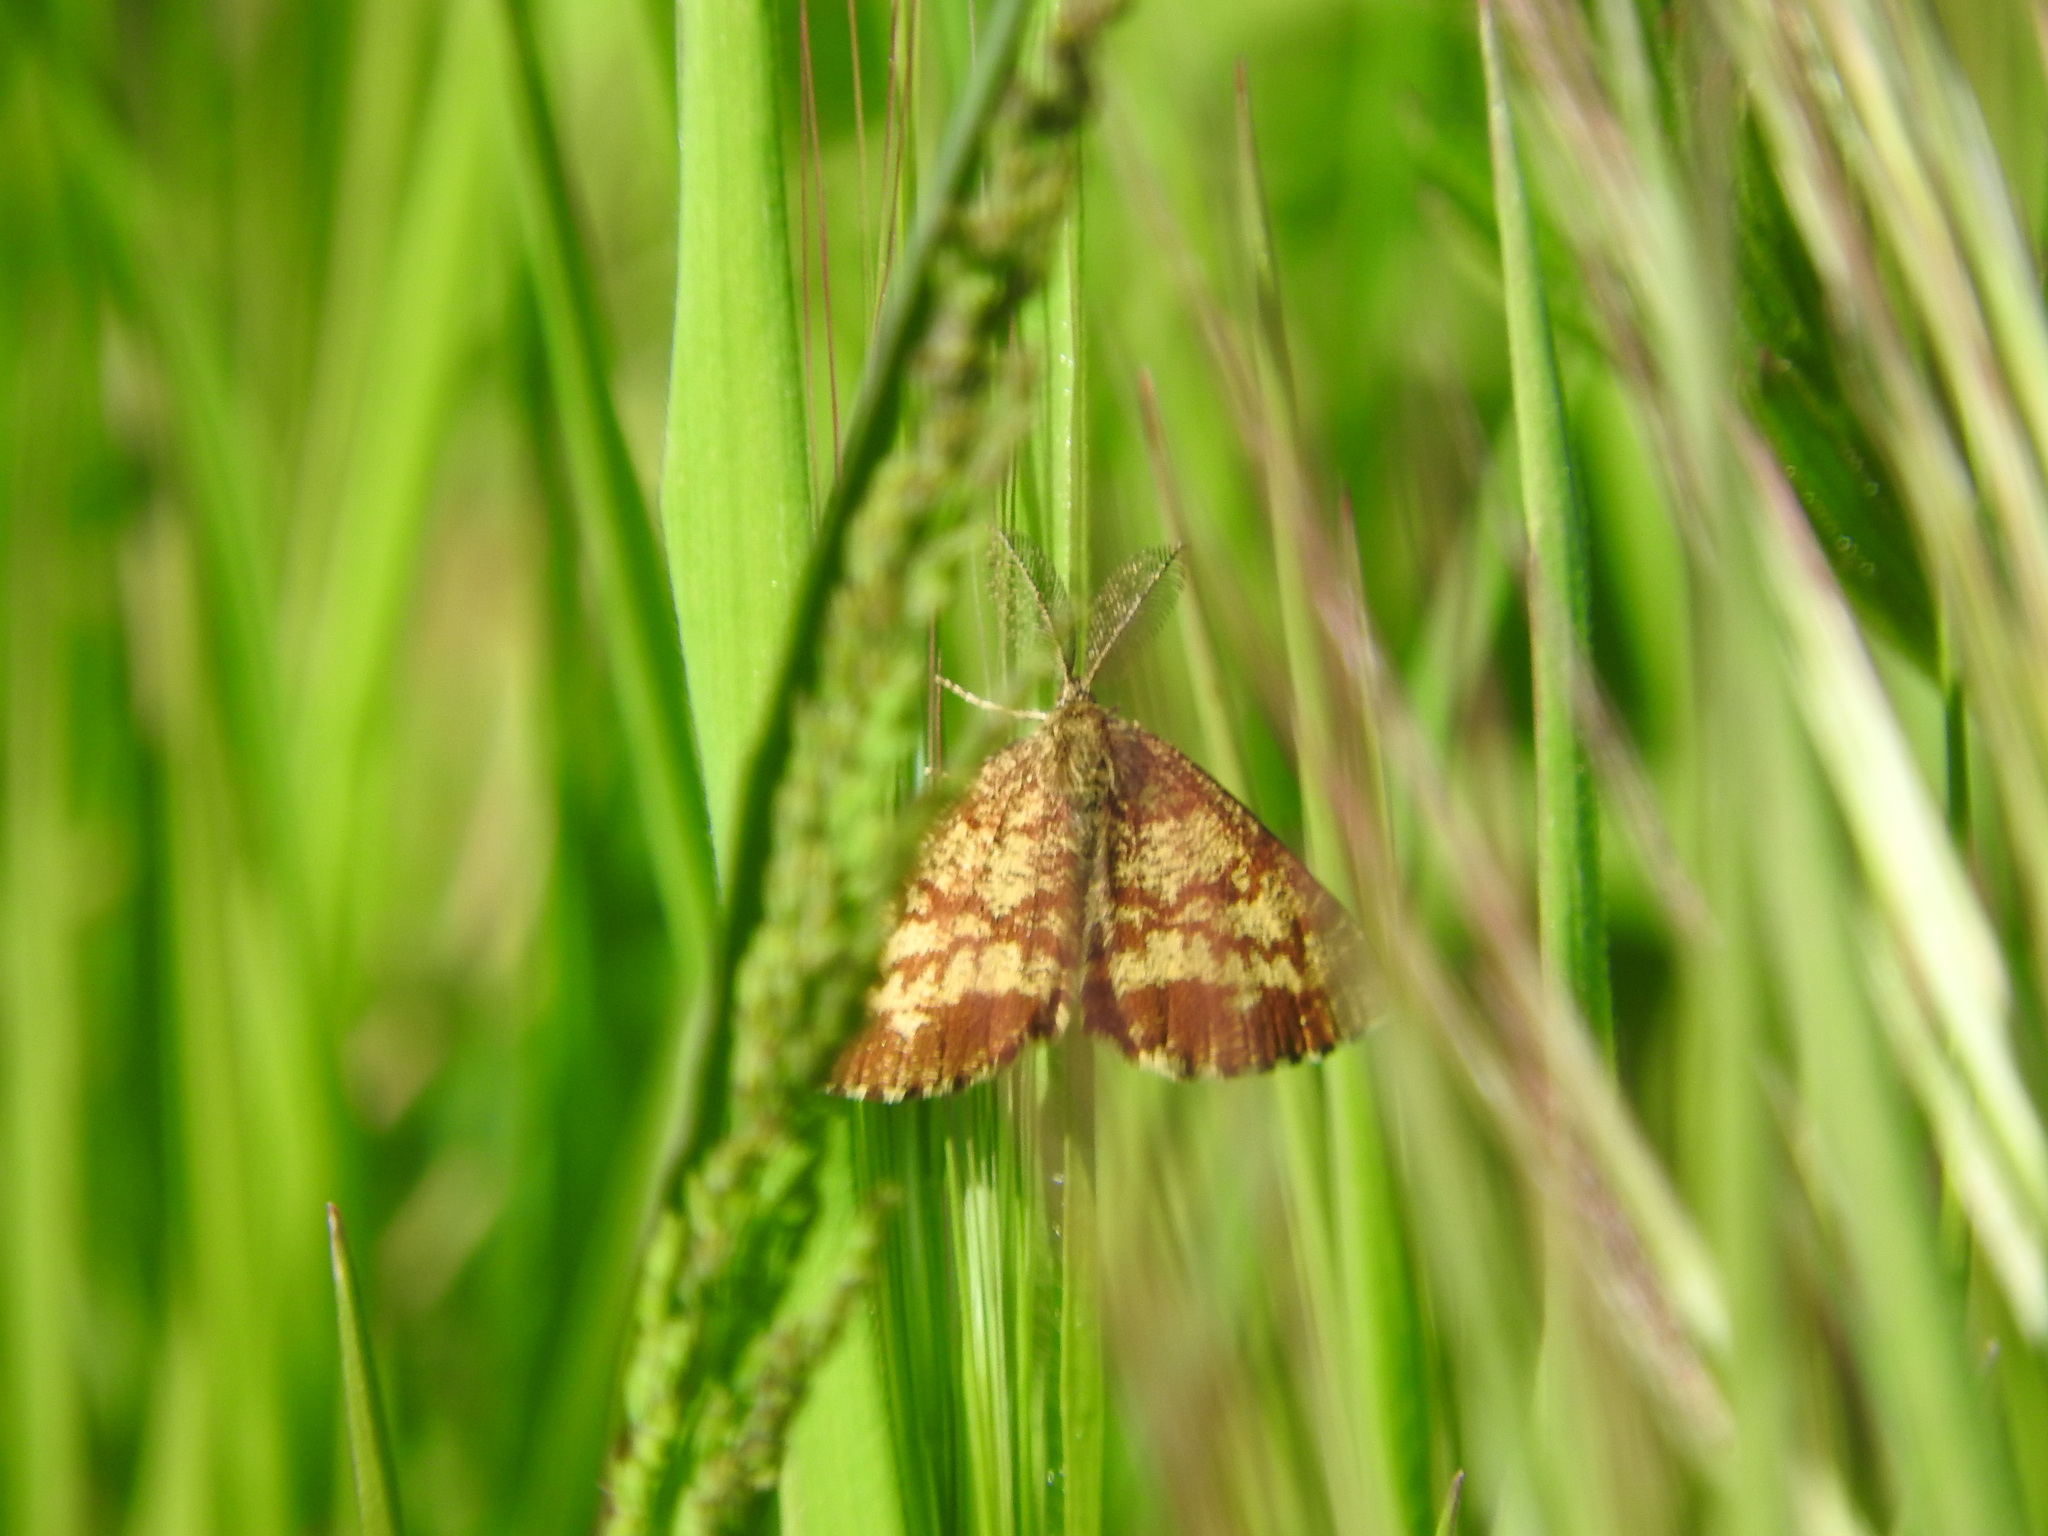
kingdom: Animalia
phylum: Arthropoda
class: Insecta
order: Lepidoptera
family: Geometridae
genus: Ematurga
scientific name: Ematurga atomaria
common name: Common heath
